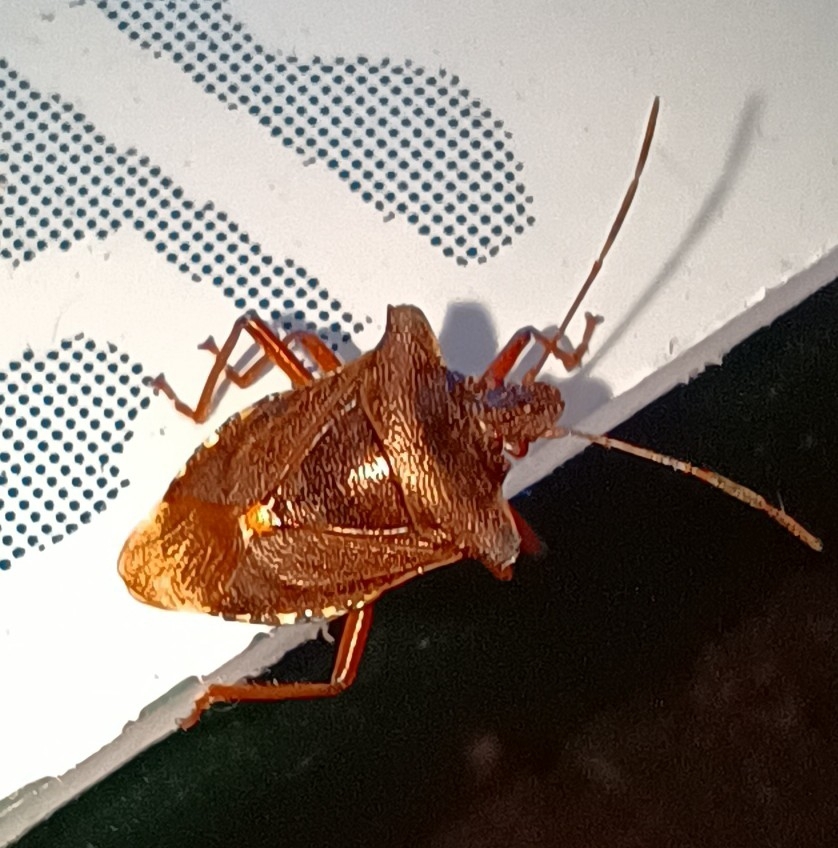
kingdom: Animalia
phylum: Arthropoda
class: Insecta
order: Hemiptera
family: Pentatomidae
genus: Pentatoma
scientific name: Pentatoma rufipes
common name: Forest bug
